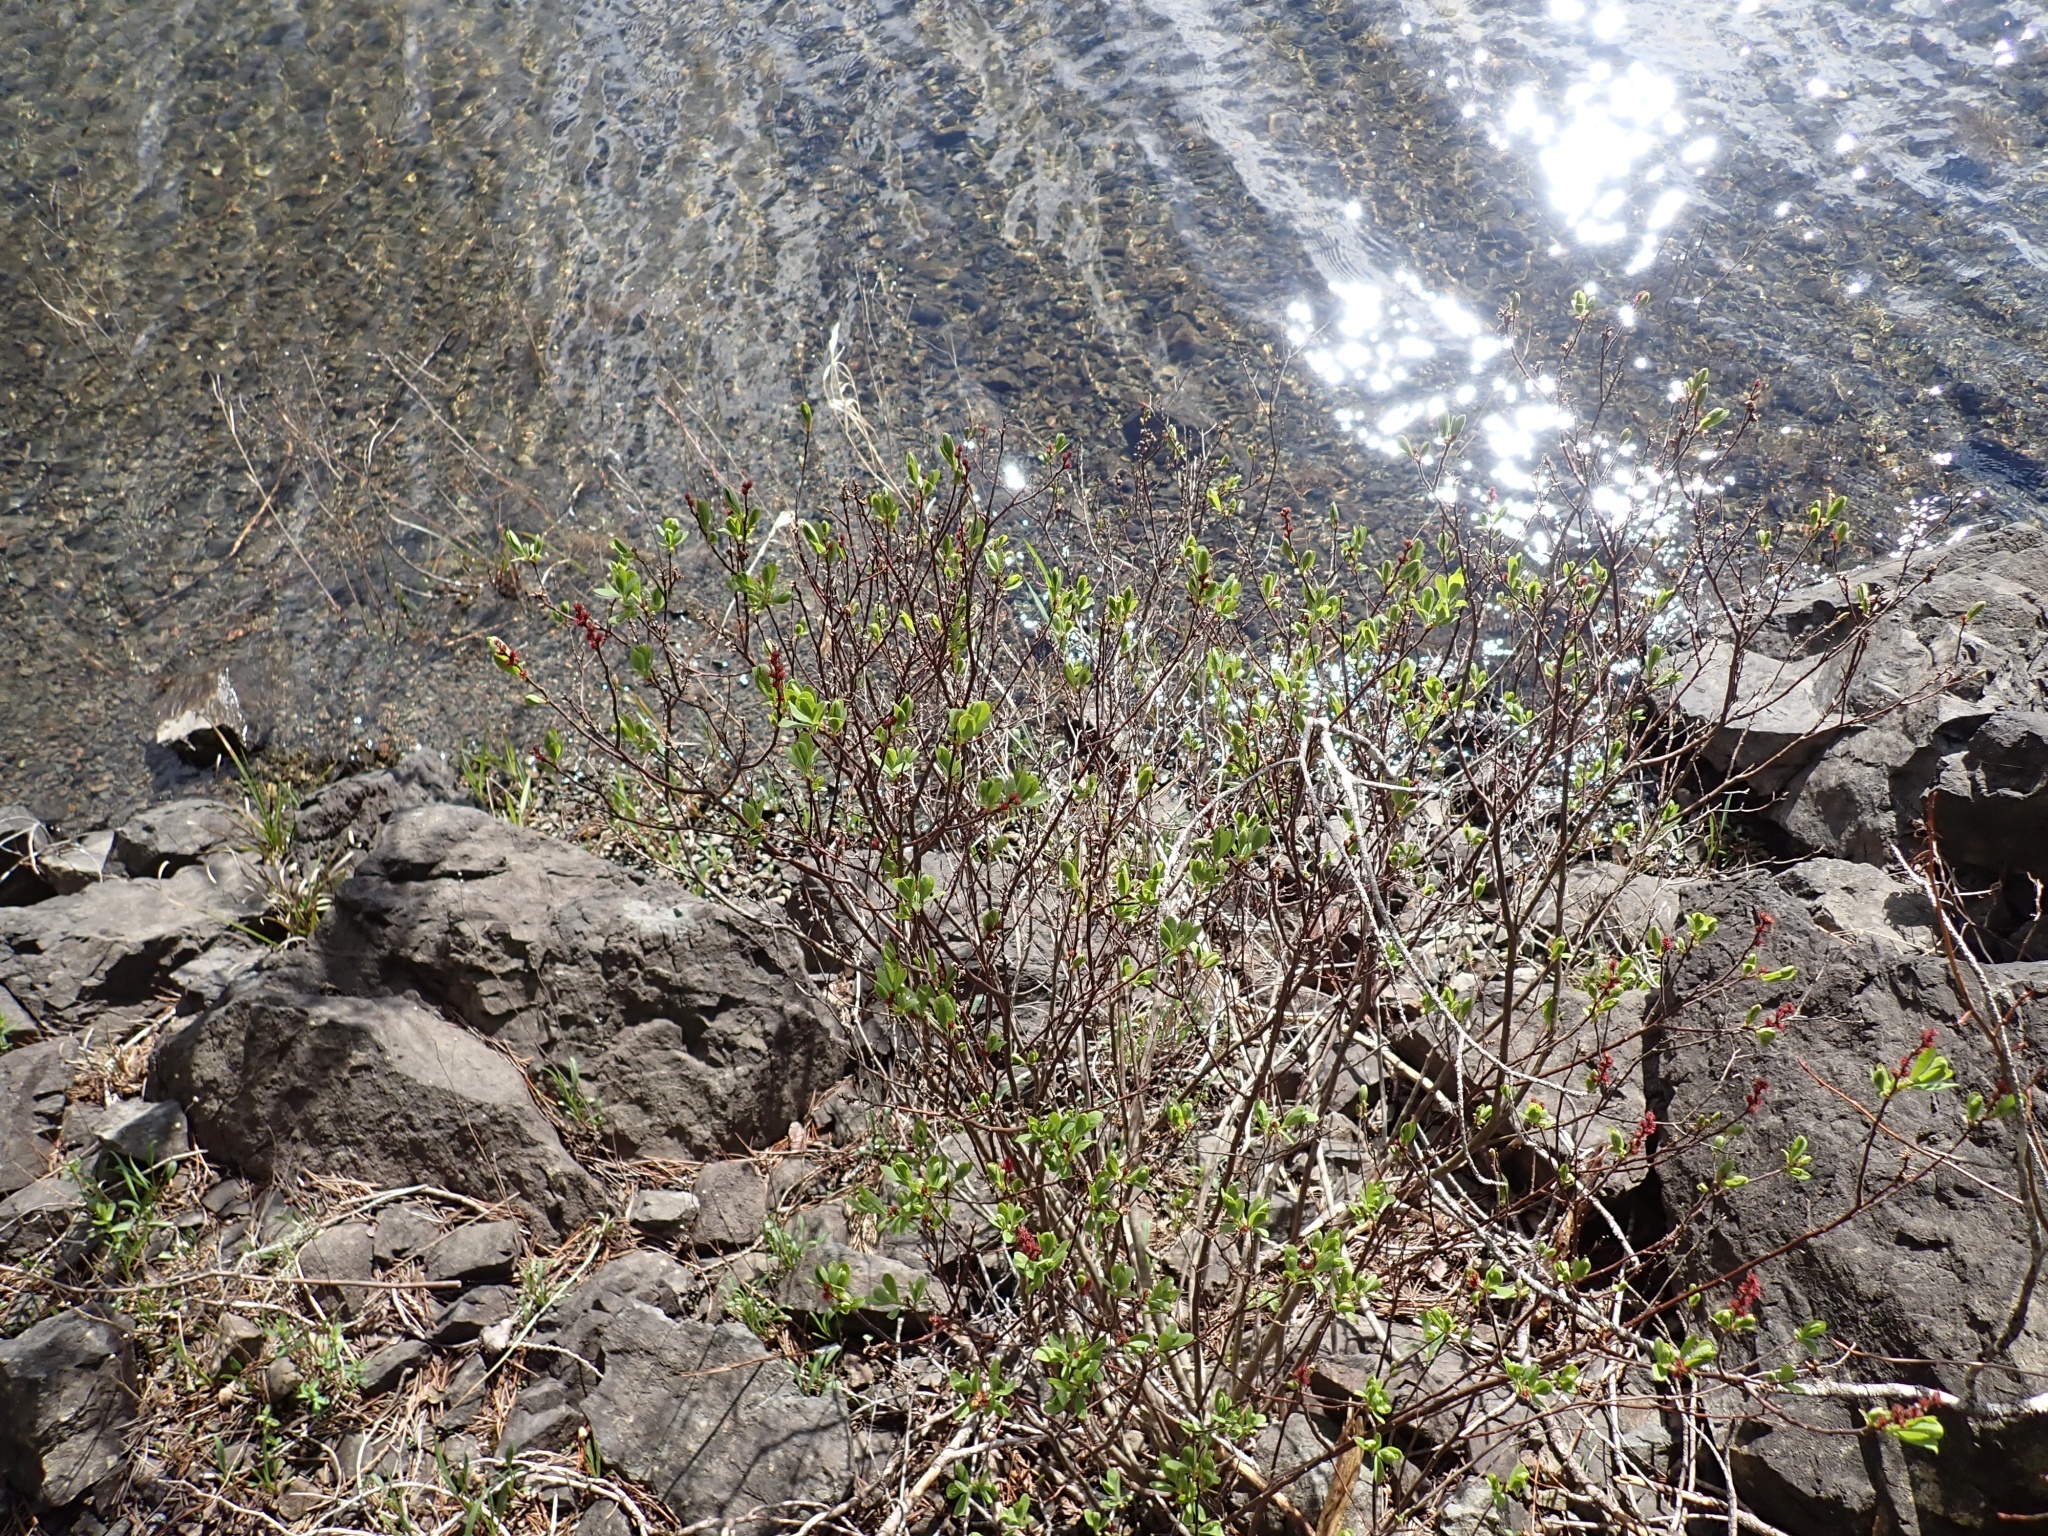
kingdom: Plantae
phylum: Tracheophyta
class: Magnoliopsida
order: Fagales
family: Myricaceae
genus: Myrica
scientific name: Myrica gale
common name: Sweet gale
